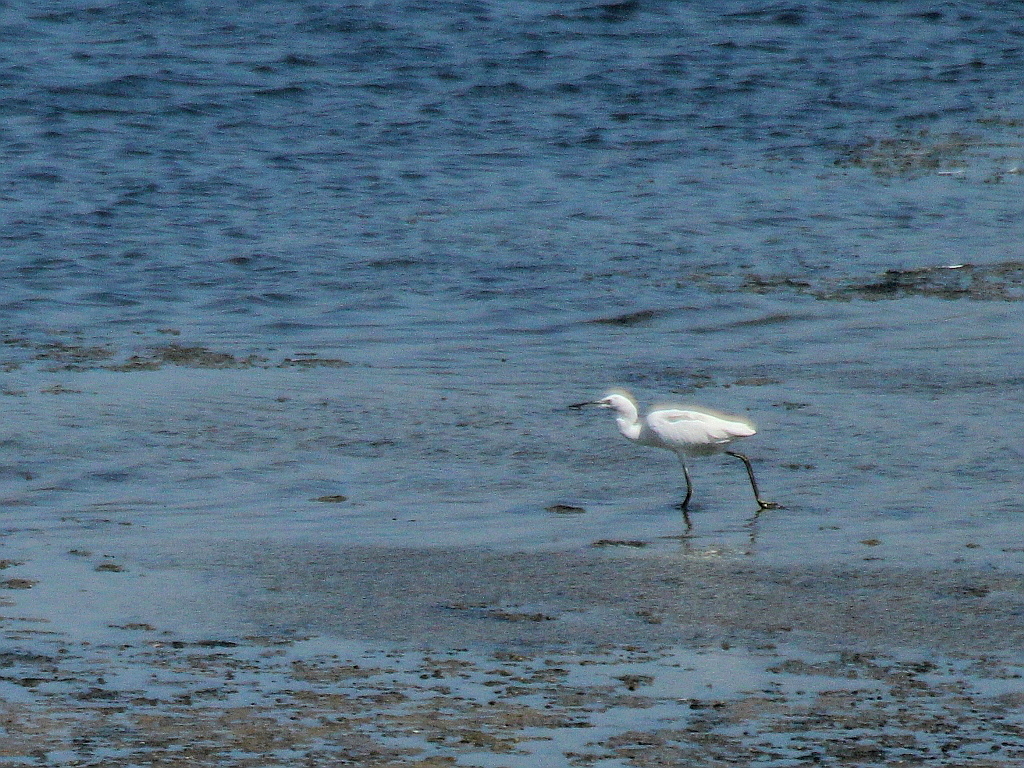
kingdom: Animalia
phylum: Chordata
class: Aves
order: Pelecaniformes
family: Ardeidae
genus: Egretta
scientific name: Egretta garzetta
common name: Little egret
